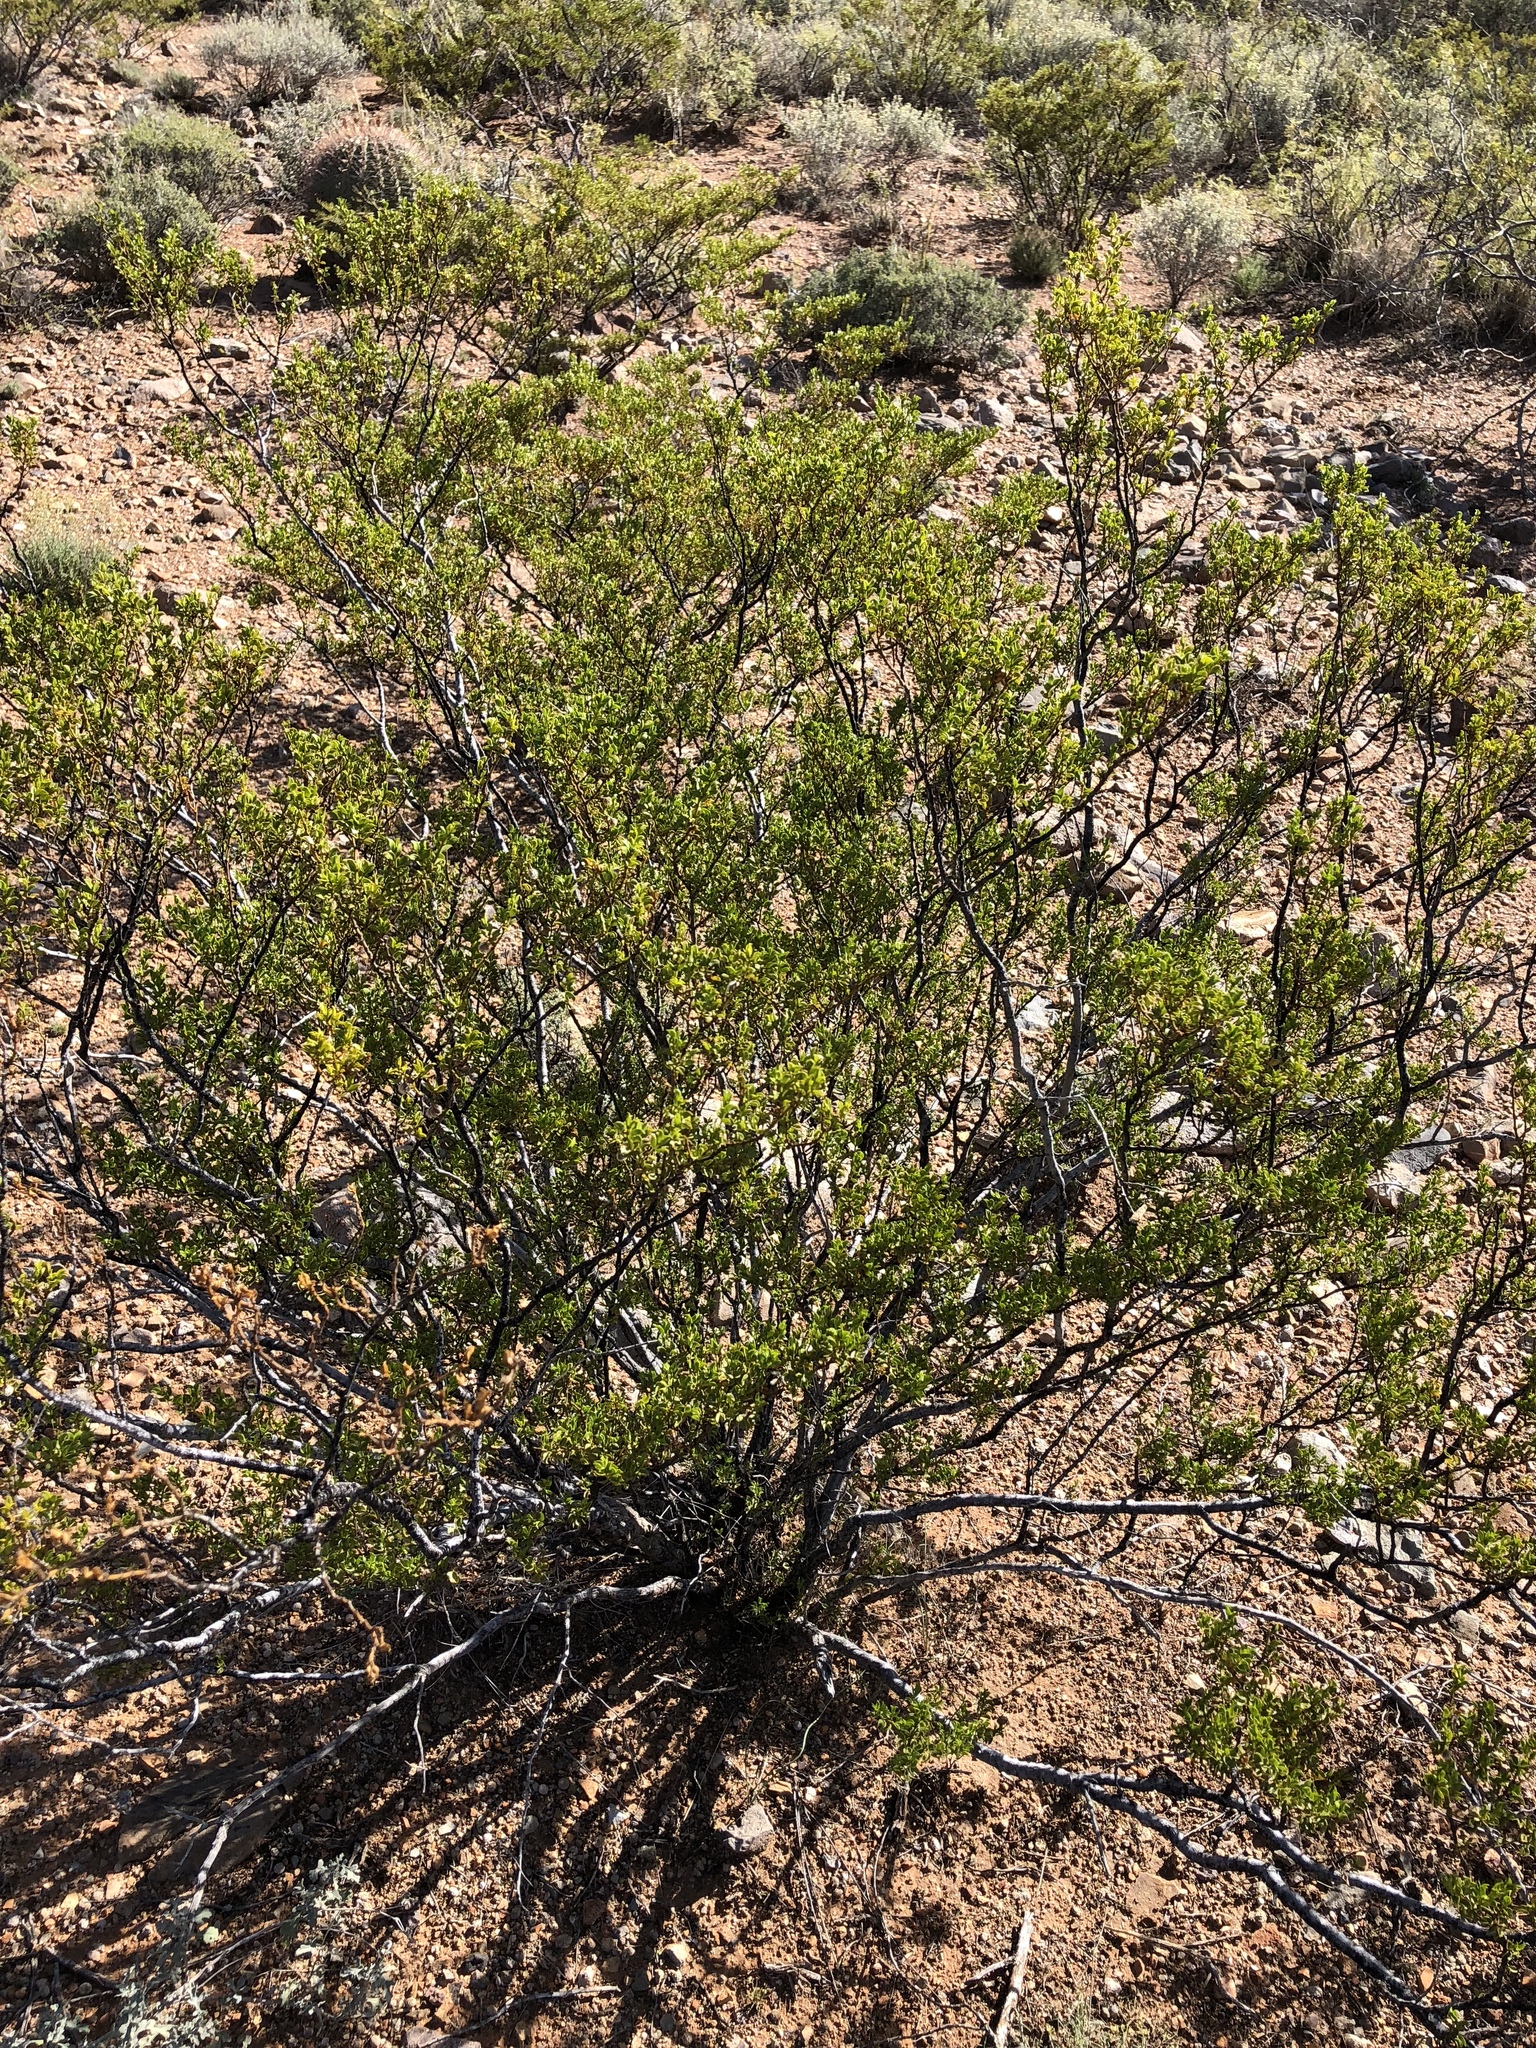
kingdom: Plantae
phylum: Tracheophyta
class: Magnoliopsida
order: Zygophyllales
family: Zygophyllaceae
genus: Larrea
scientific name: Larrea tridentata
